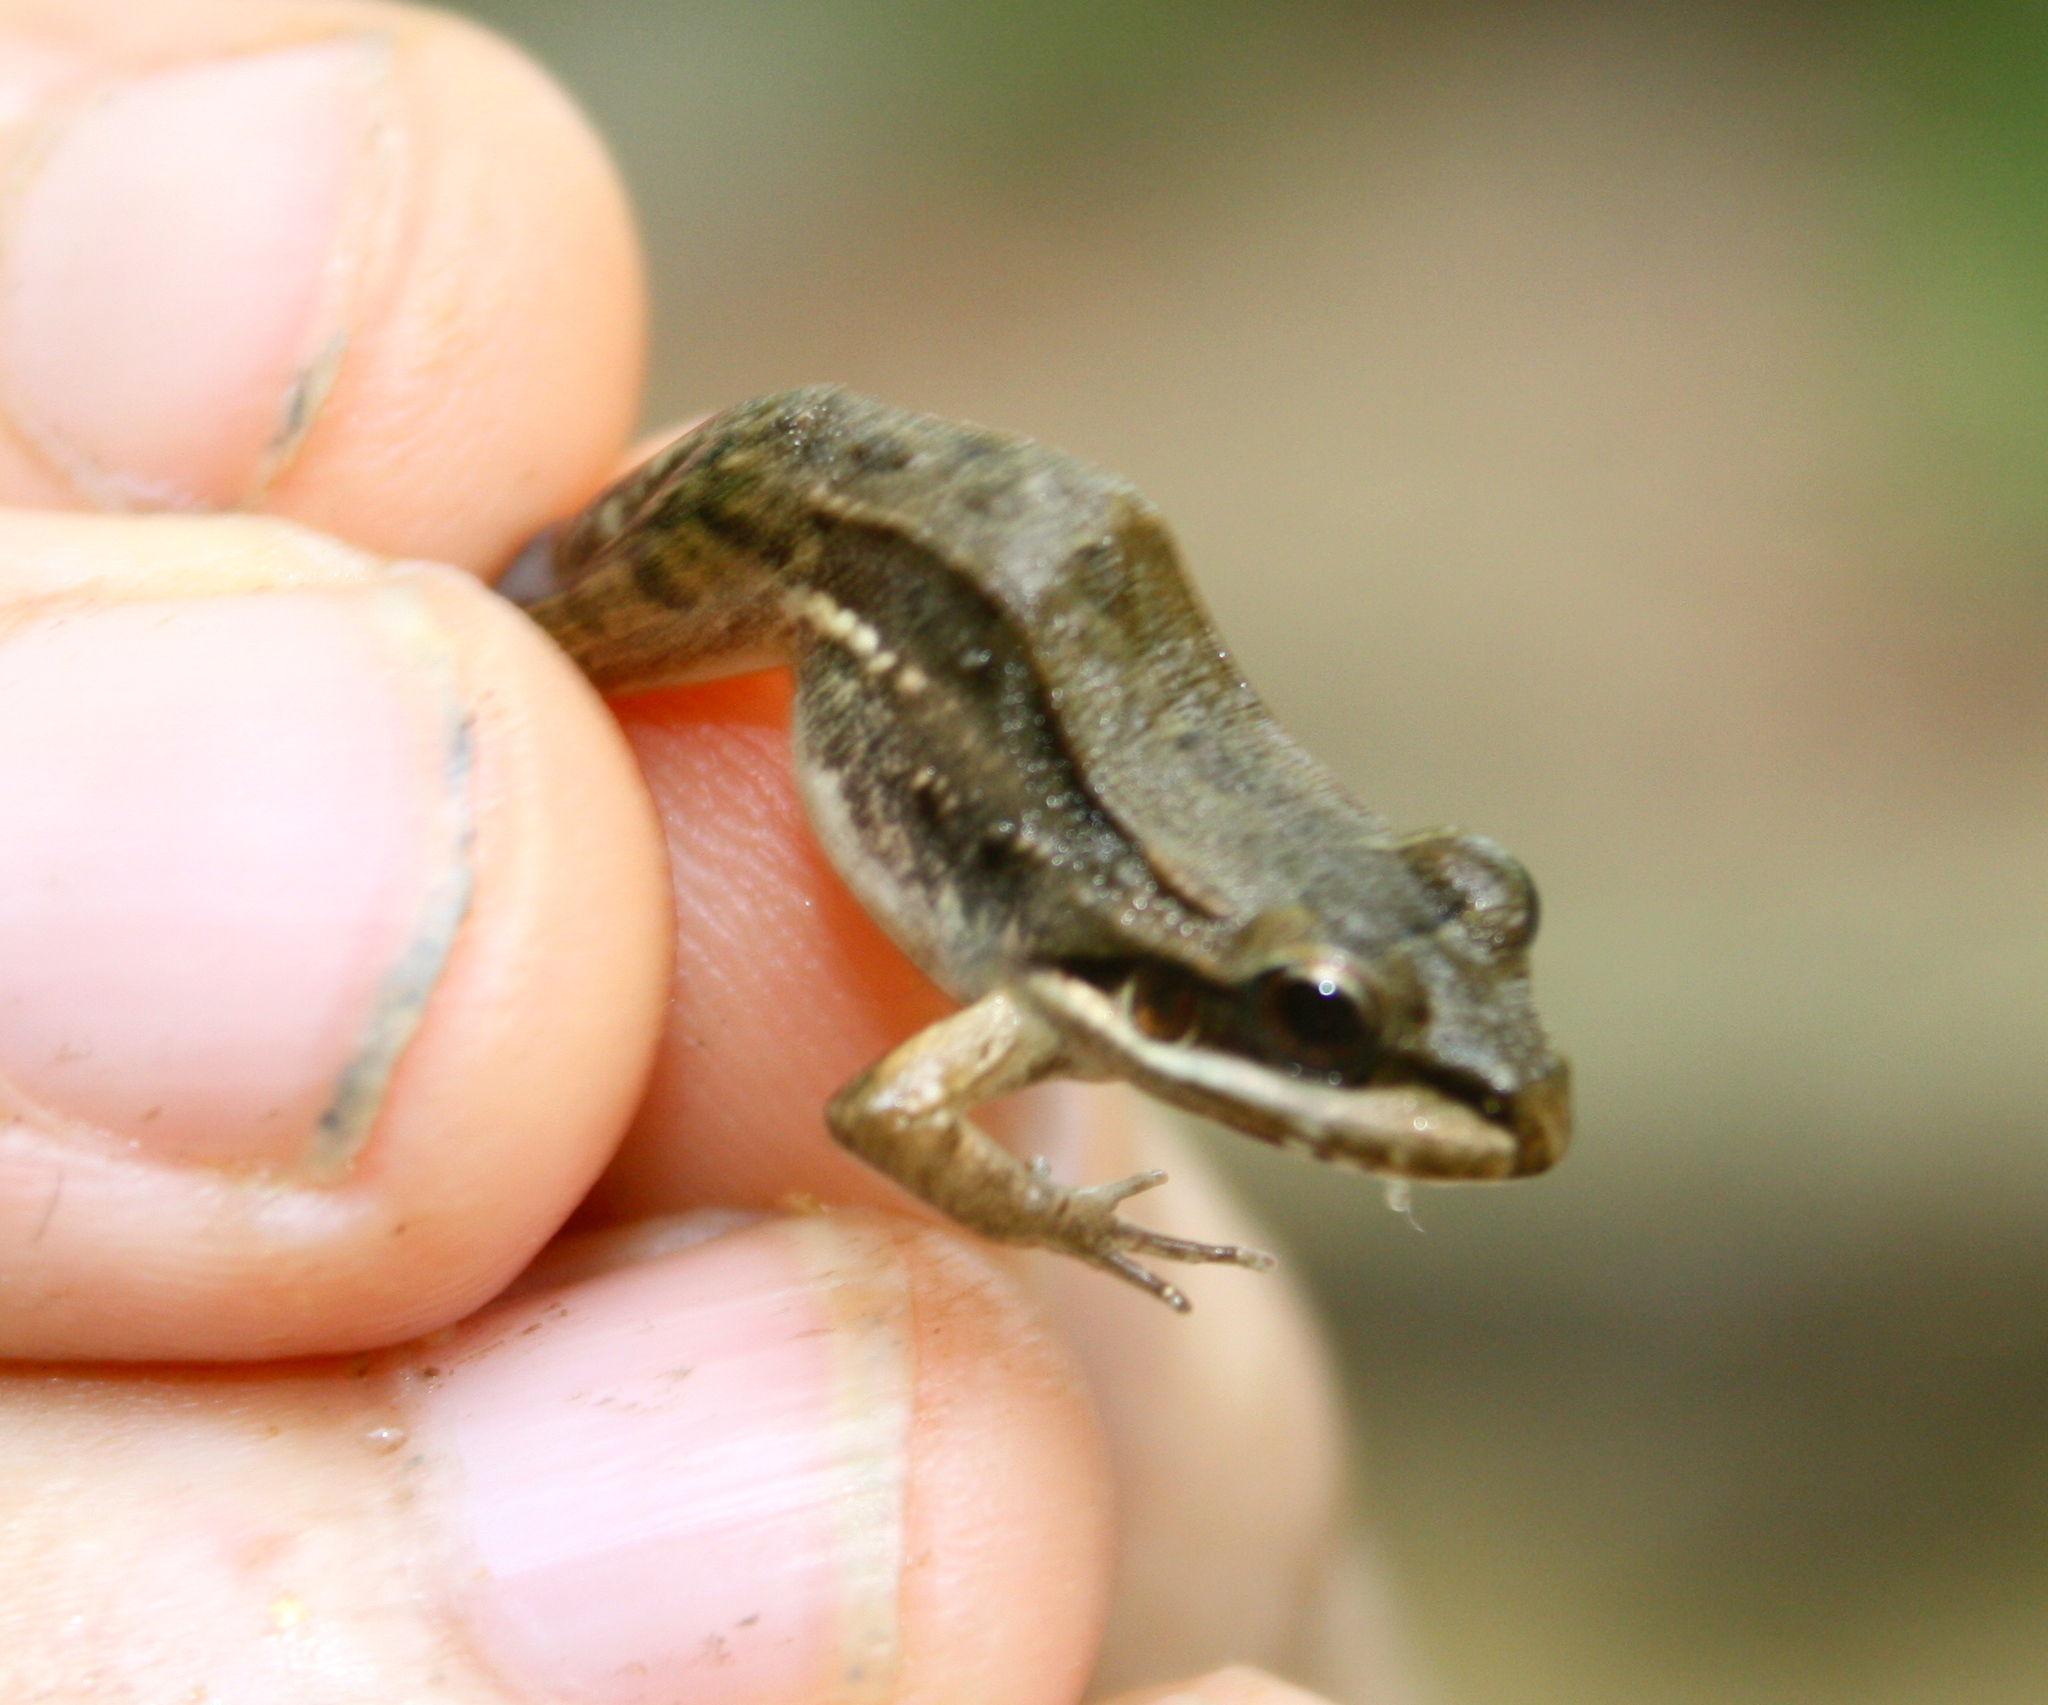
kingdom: Animalia
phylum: Chordata
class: Amphibia
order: Anura
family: Leptodactylidae
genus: Leptodactylus
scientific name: Leptodactylus insularum
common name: San miguel island frog
